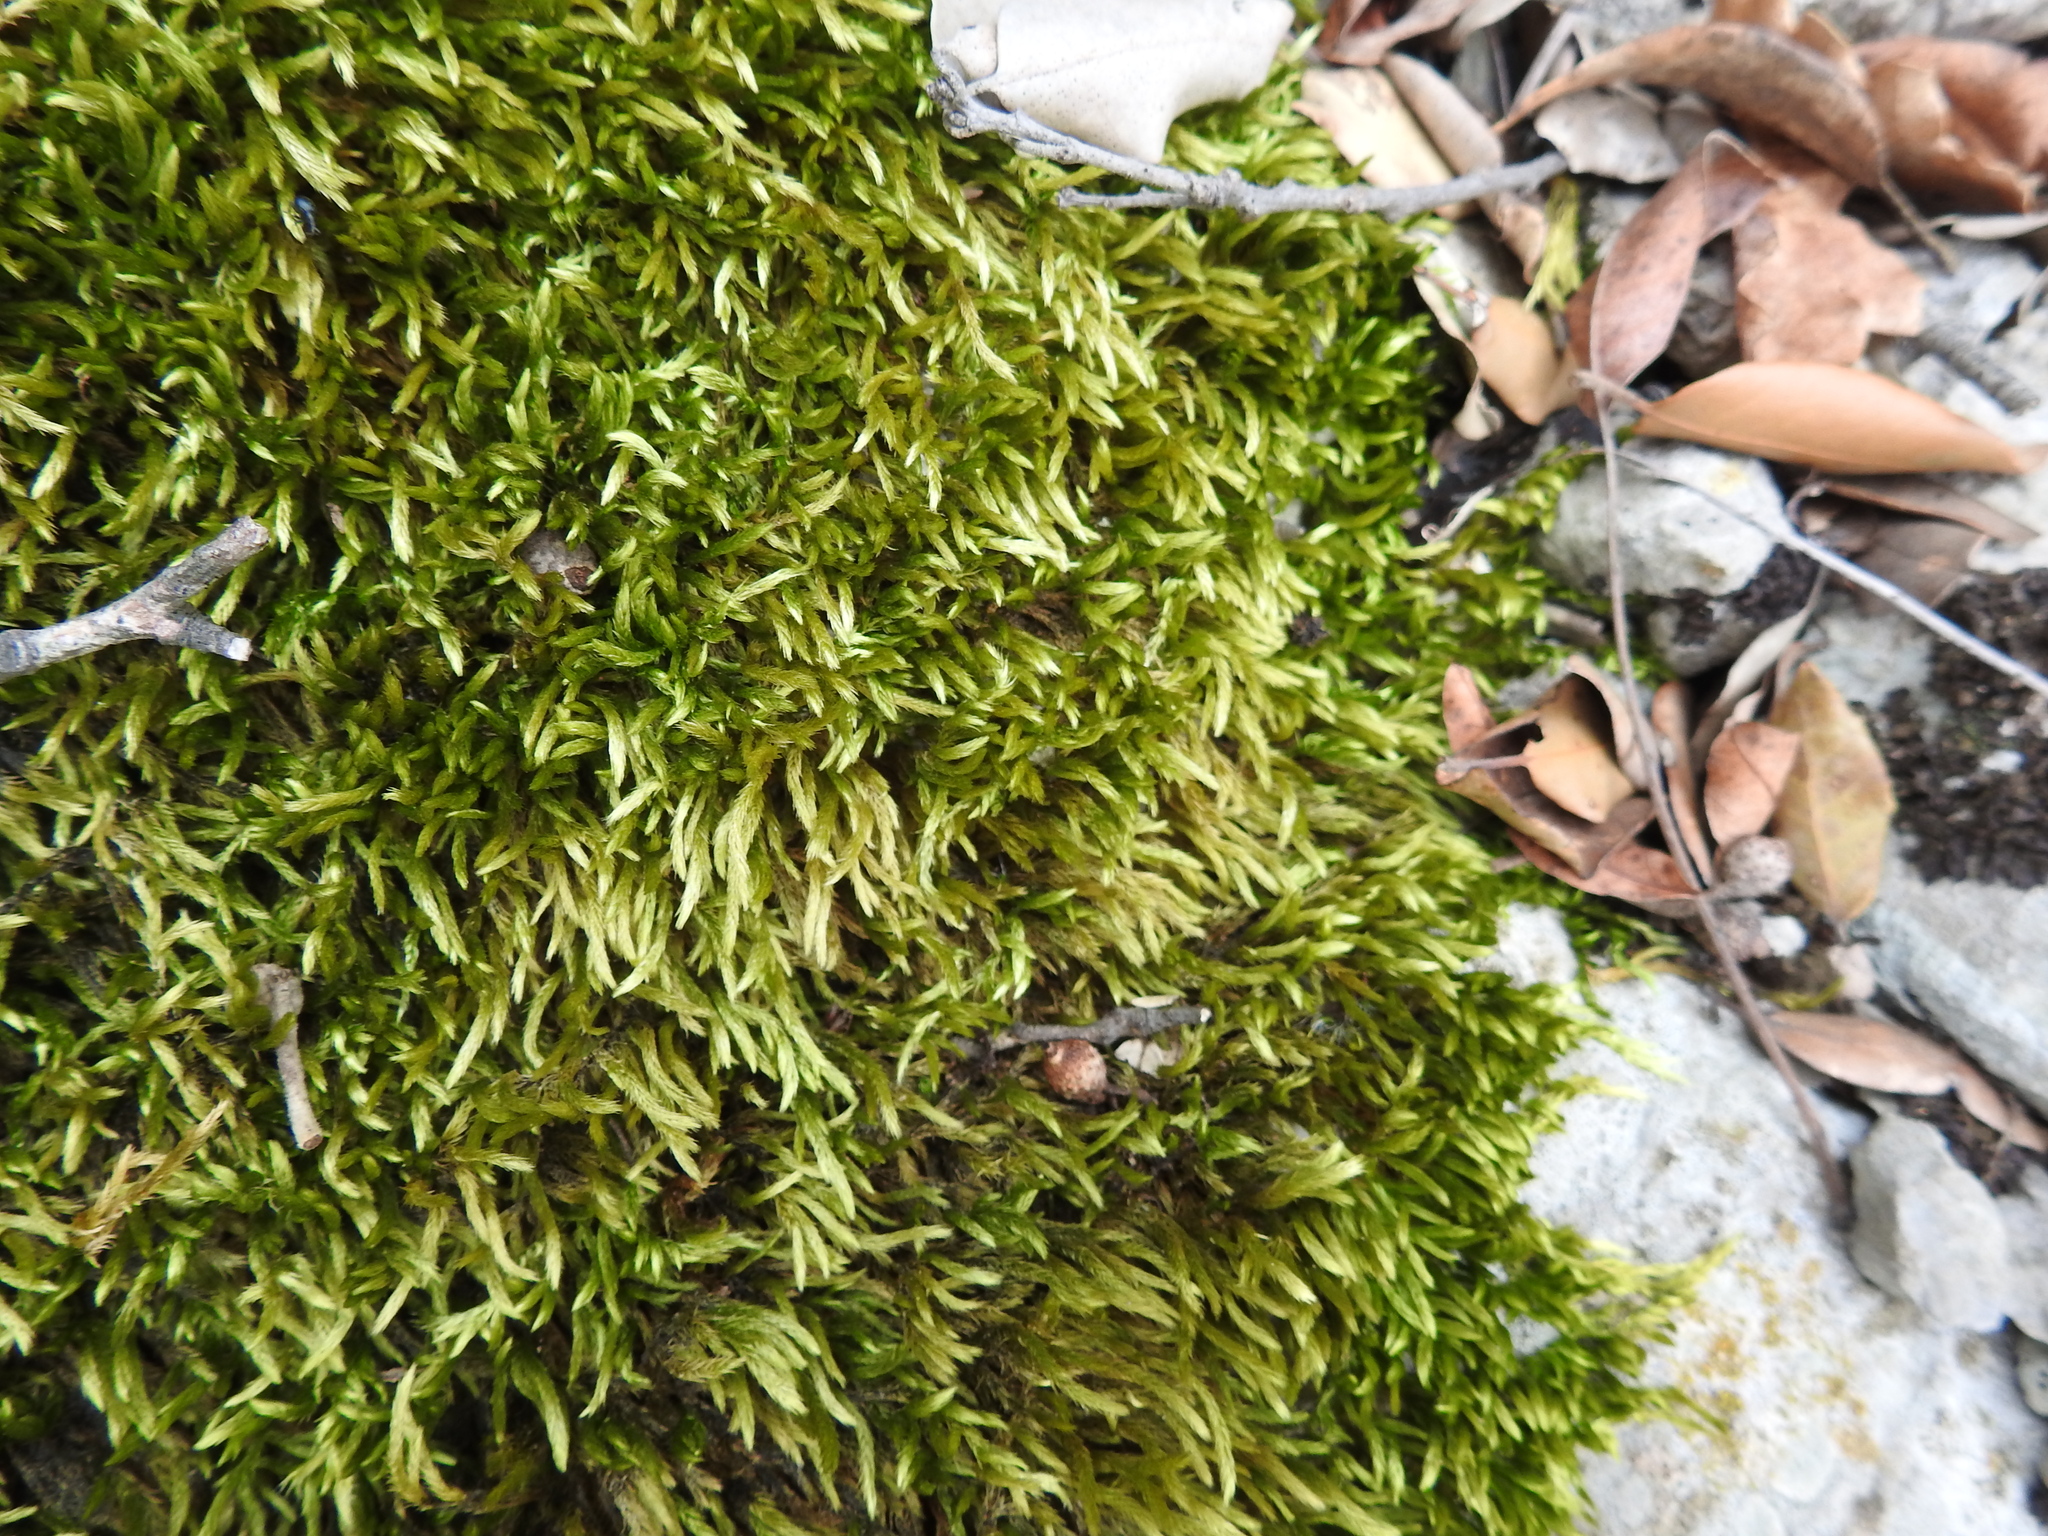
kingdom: Plantae
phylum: Bryophyta
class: Bryopsida
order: Hypnales
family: Brachytheciaceae
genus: Homalothecium
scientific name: Homalothecium lutescens
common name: Yellow feather-moss
